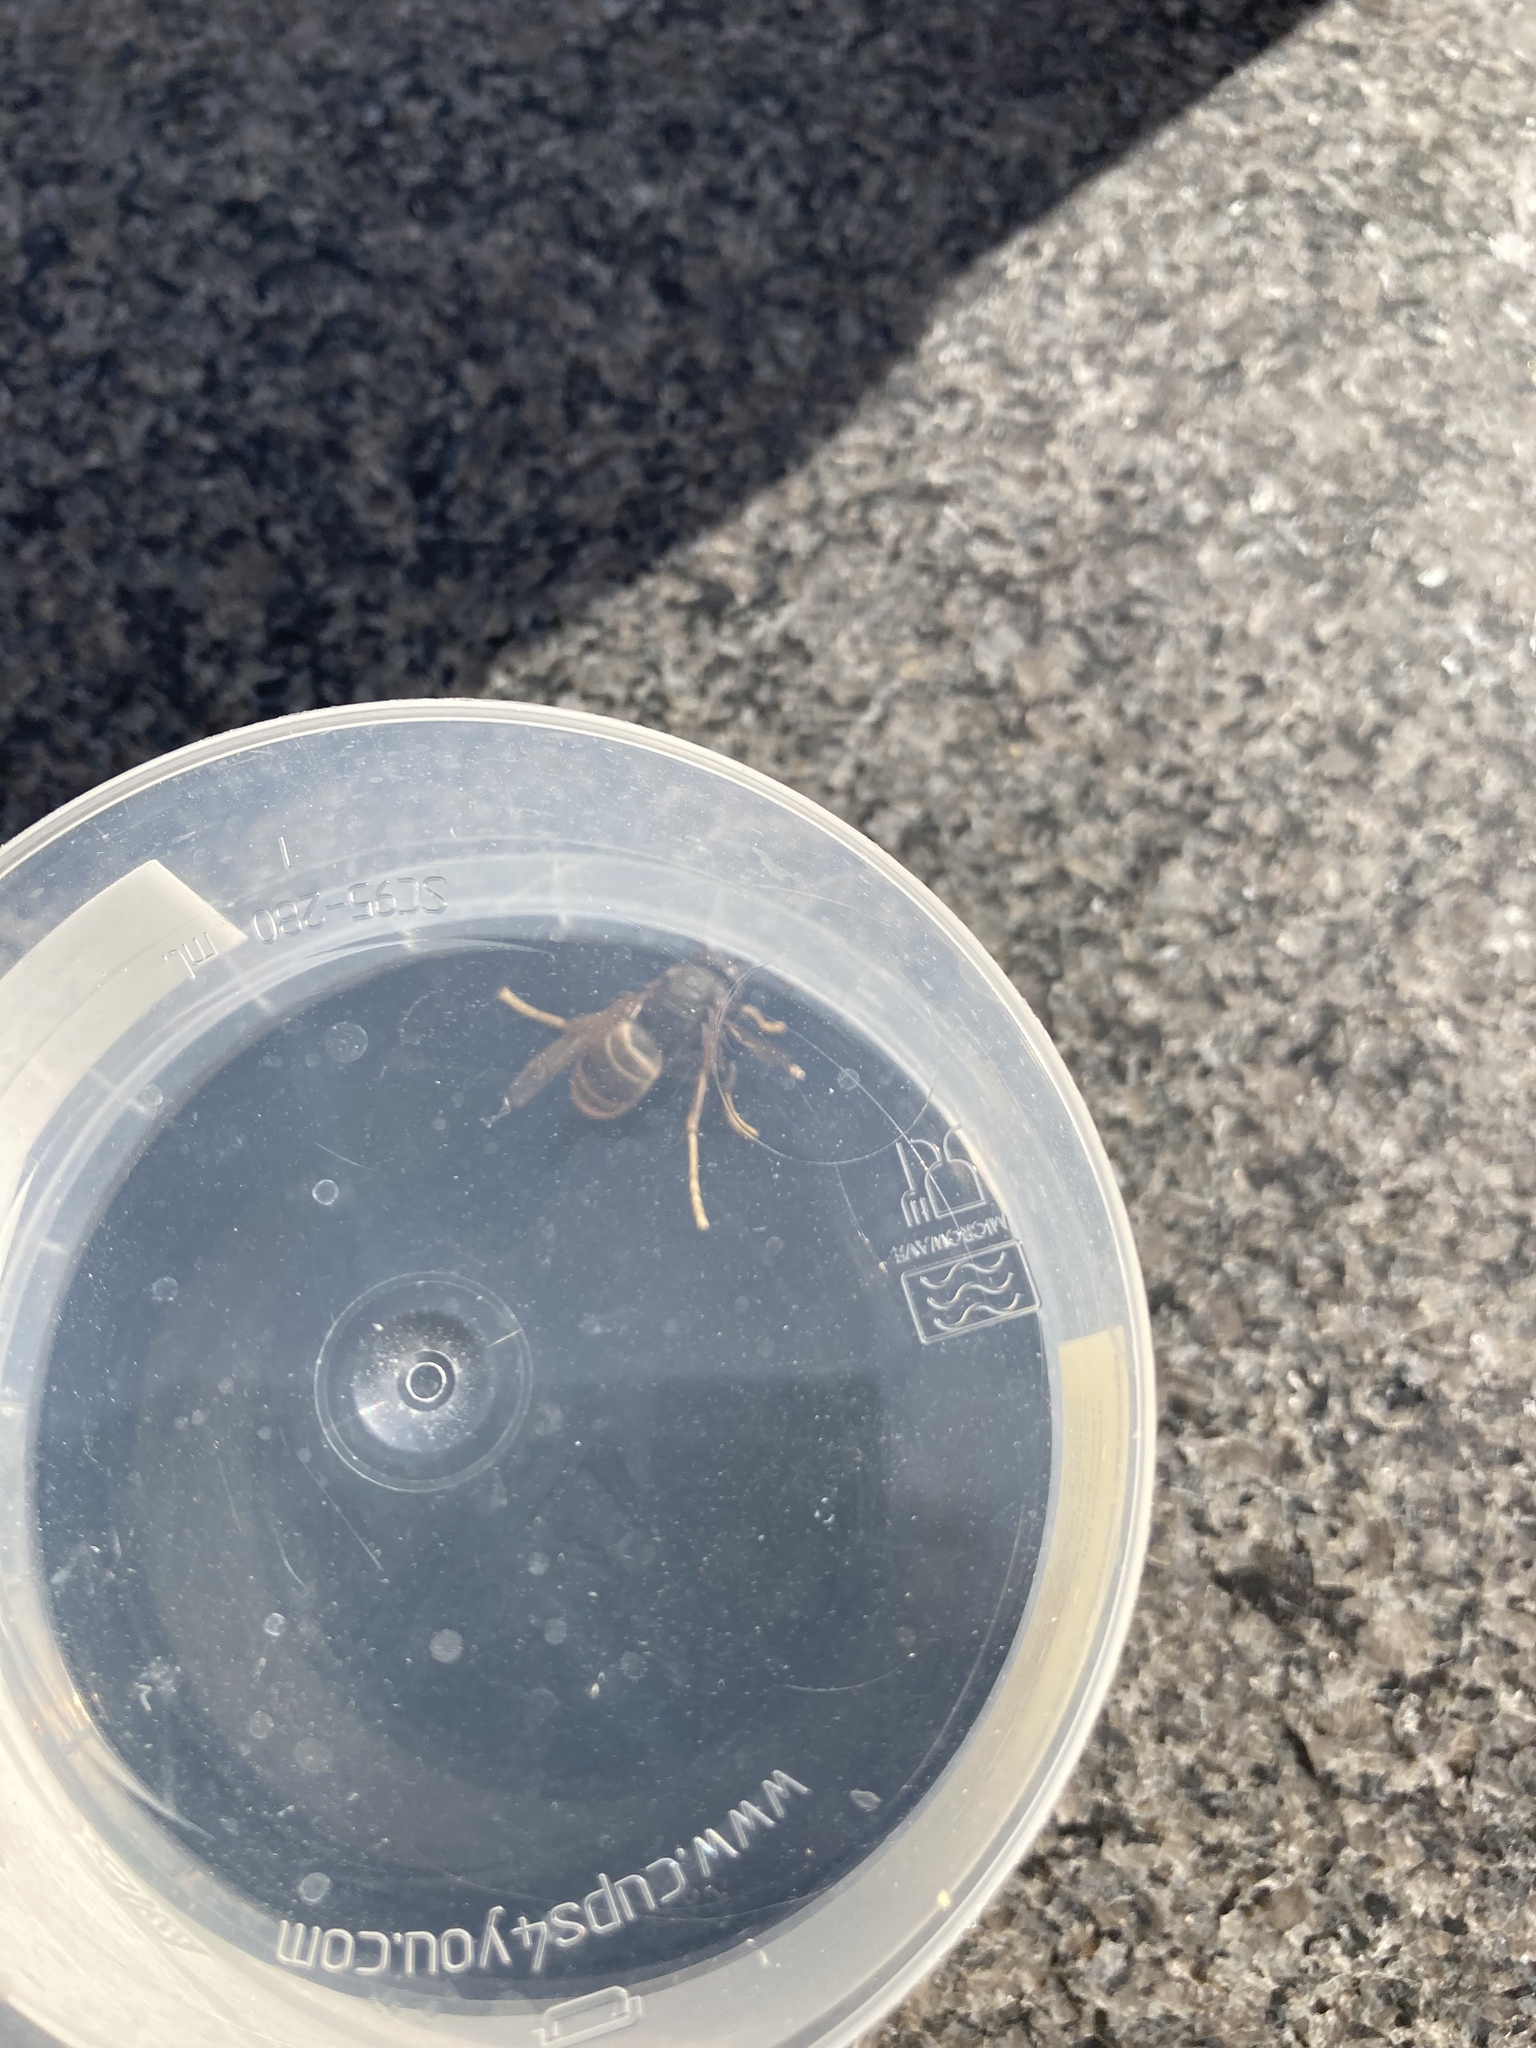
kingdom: Animalia
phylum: Arthropoda
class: Insecta
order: Hymenoptera
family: Vespidae
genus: Vespa
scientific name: Vespa velutina
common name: Asian hornet
